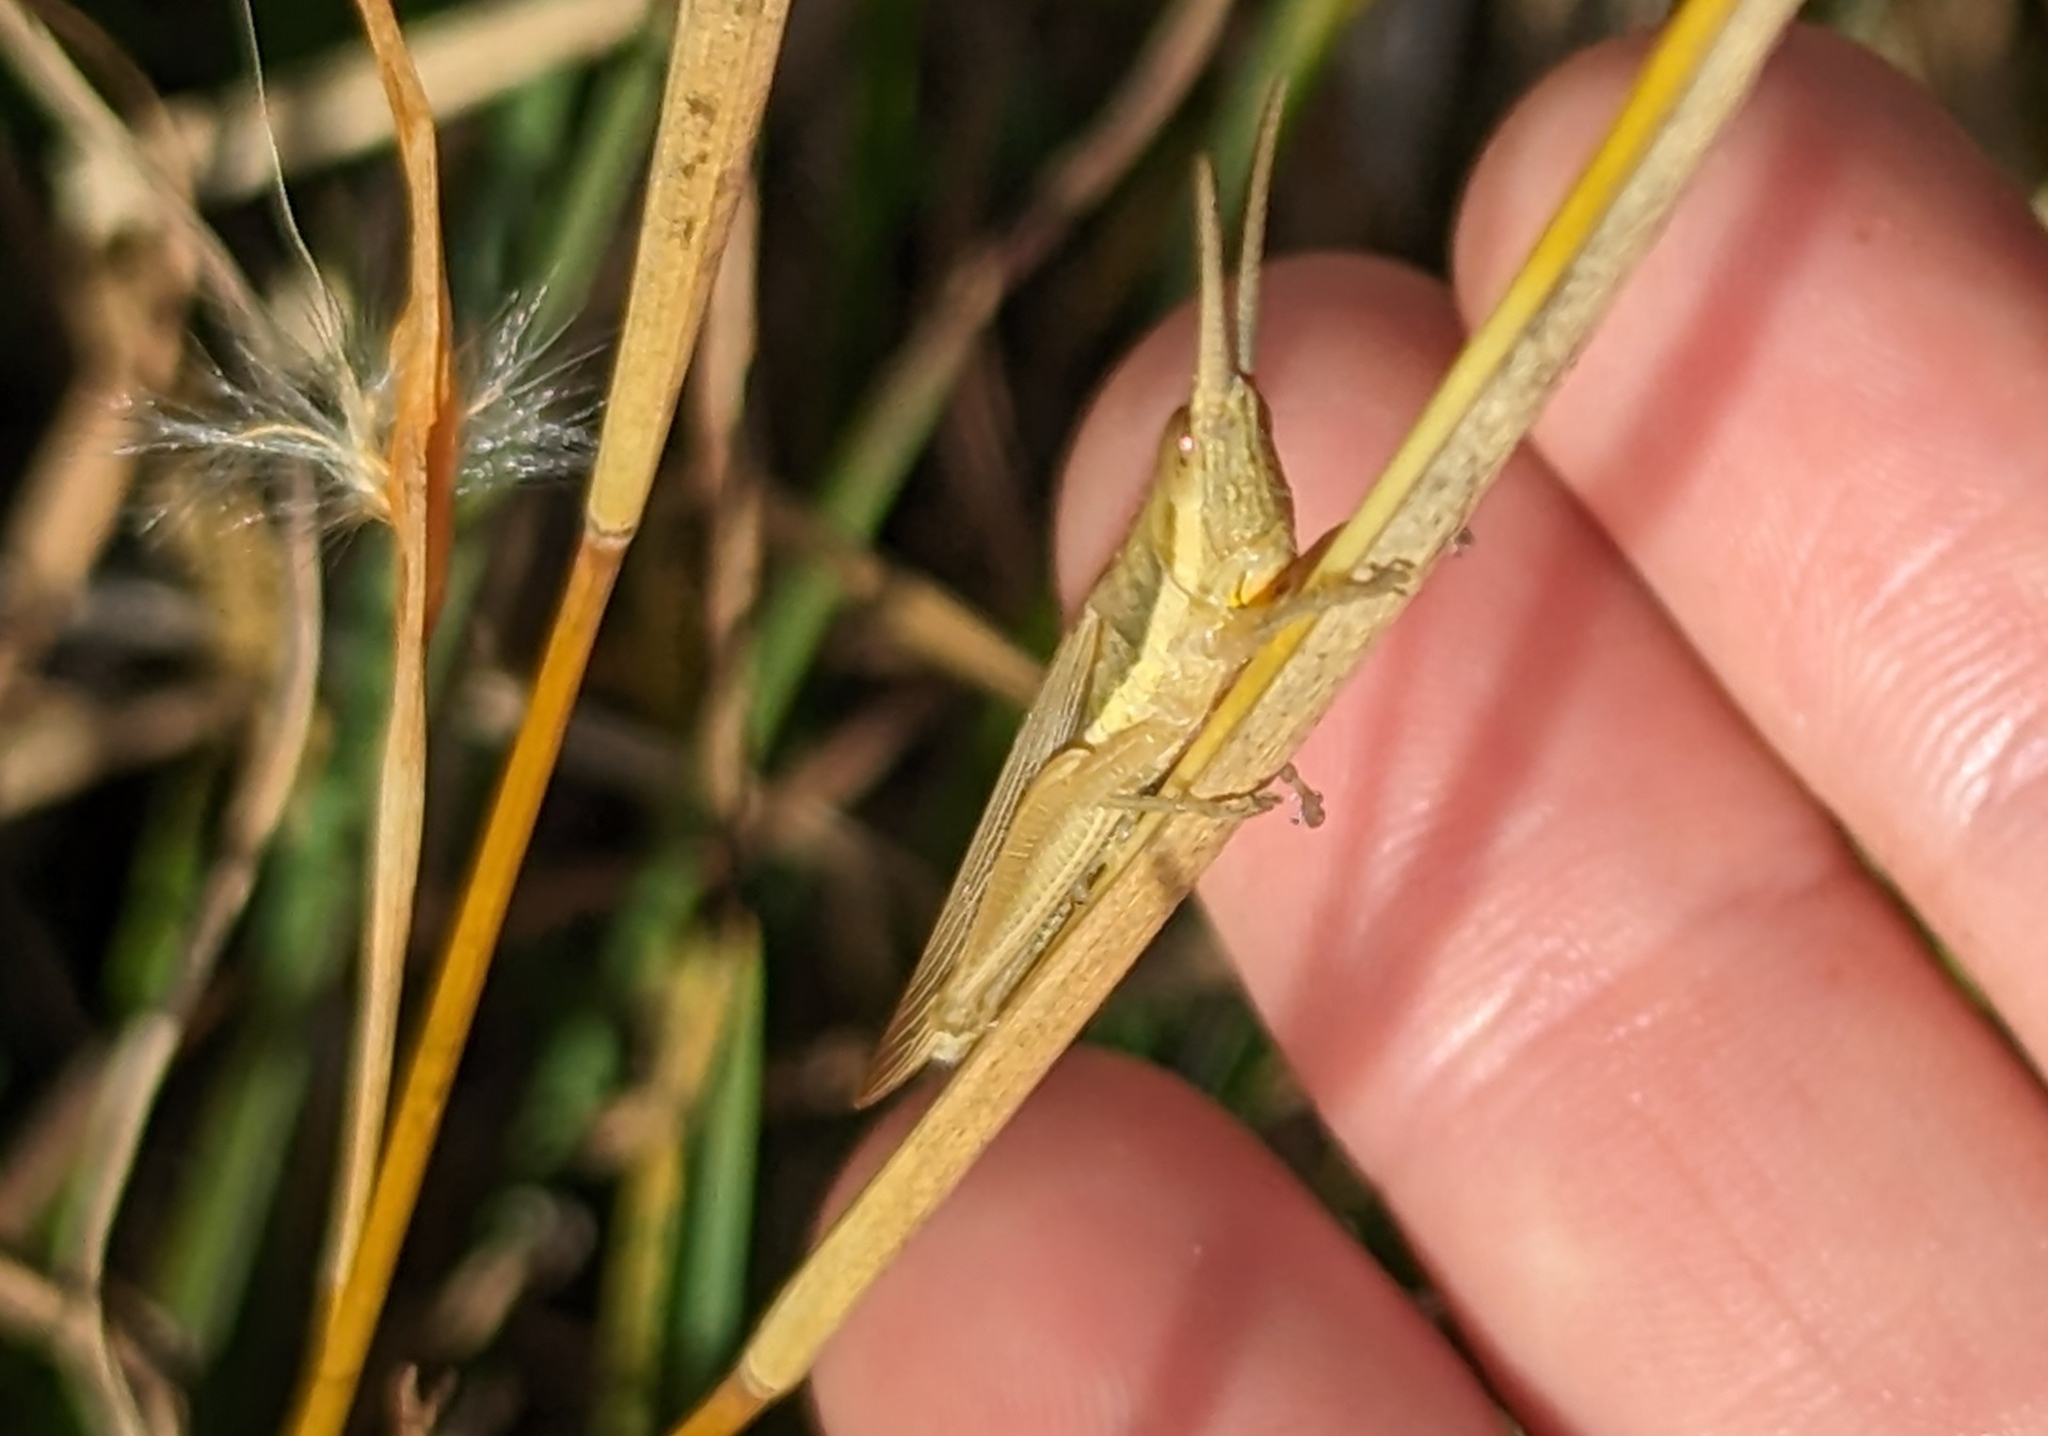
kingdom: Animalia
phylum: Arthropoda
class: Insecta
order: Orthoptera
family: Acrididae
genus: Leptysma
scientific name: Leptysma marginicollis
